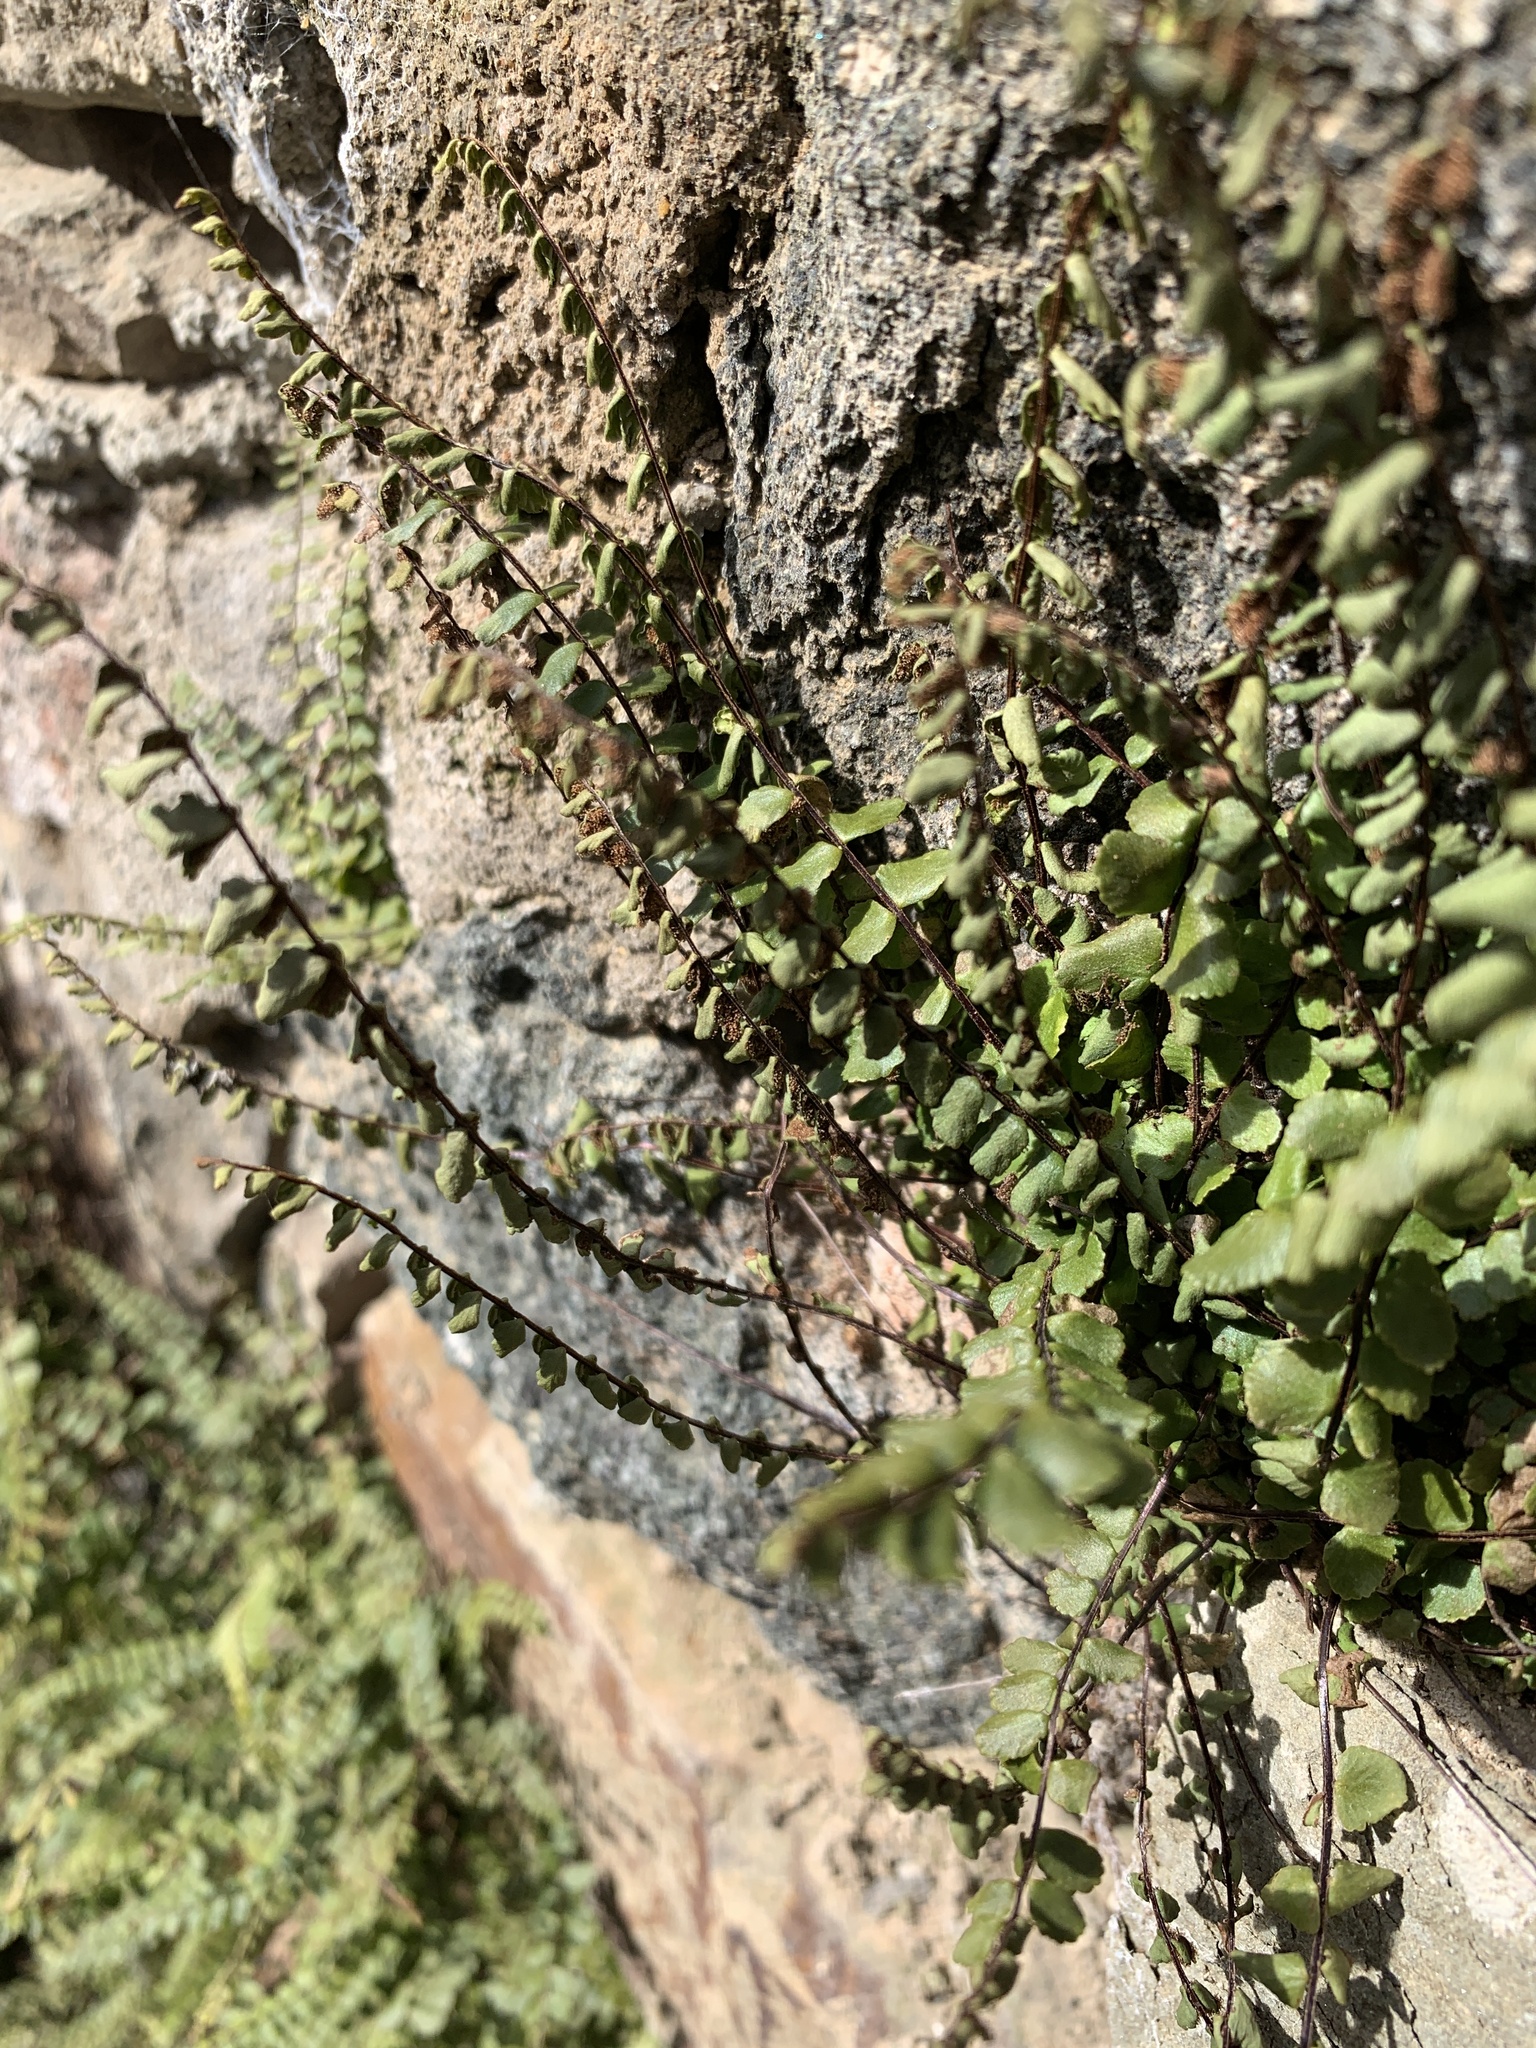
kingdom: Plantae
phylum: Tracheophyta
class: Polypodiopsida
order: Polypodiales
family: Aspleniaceae
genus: Asplenium
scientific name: Asplenium trichomanes
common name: Maidenhair spleenwort
